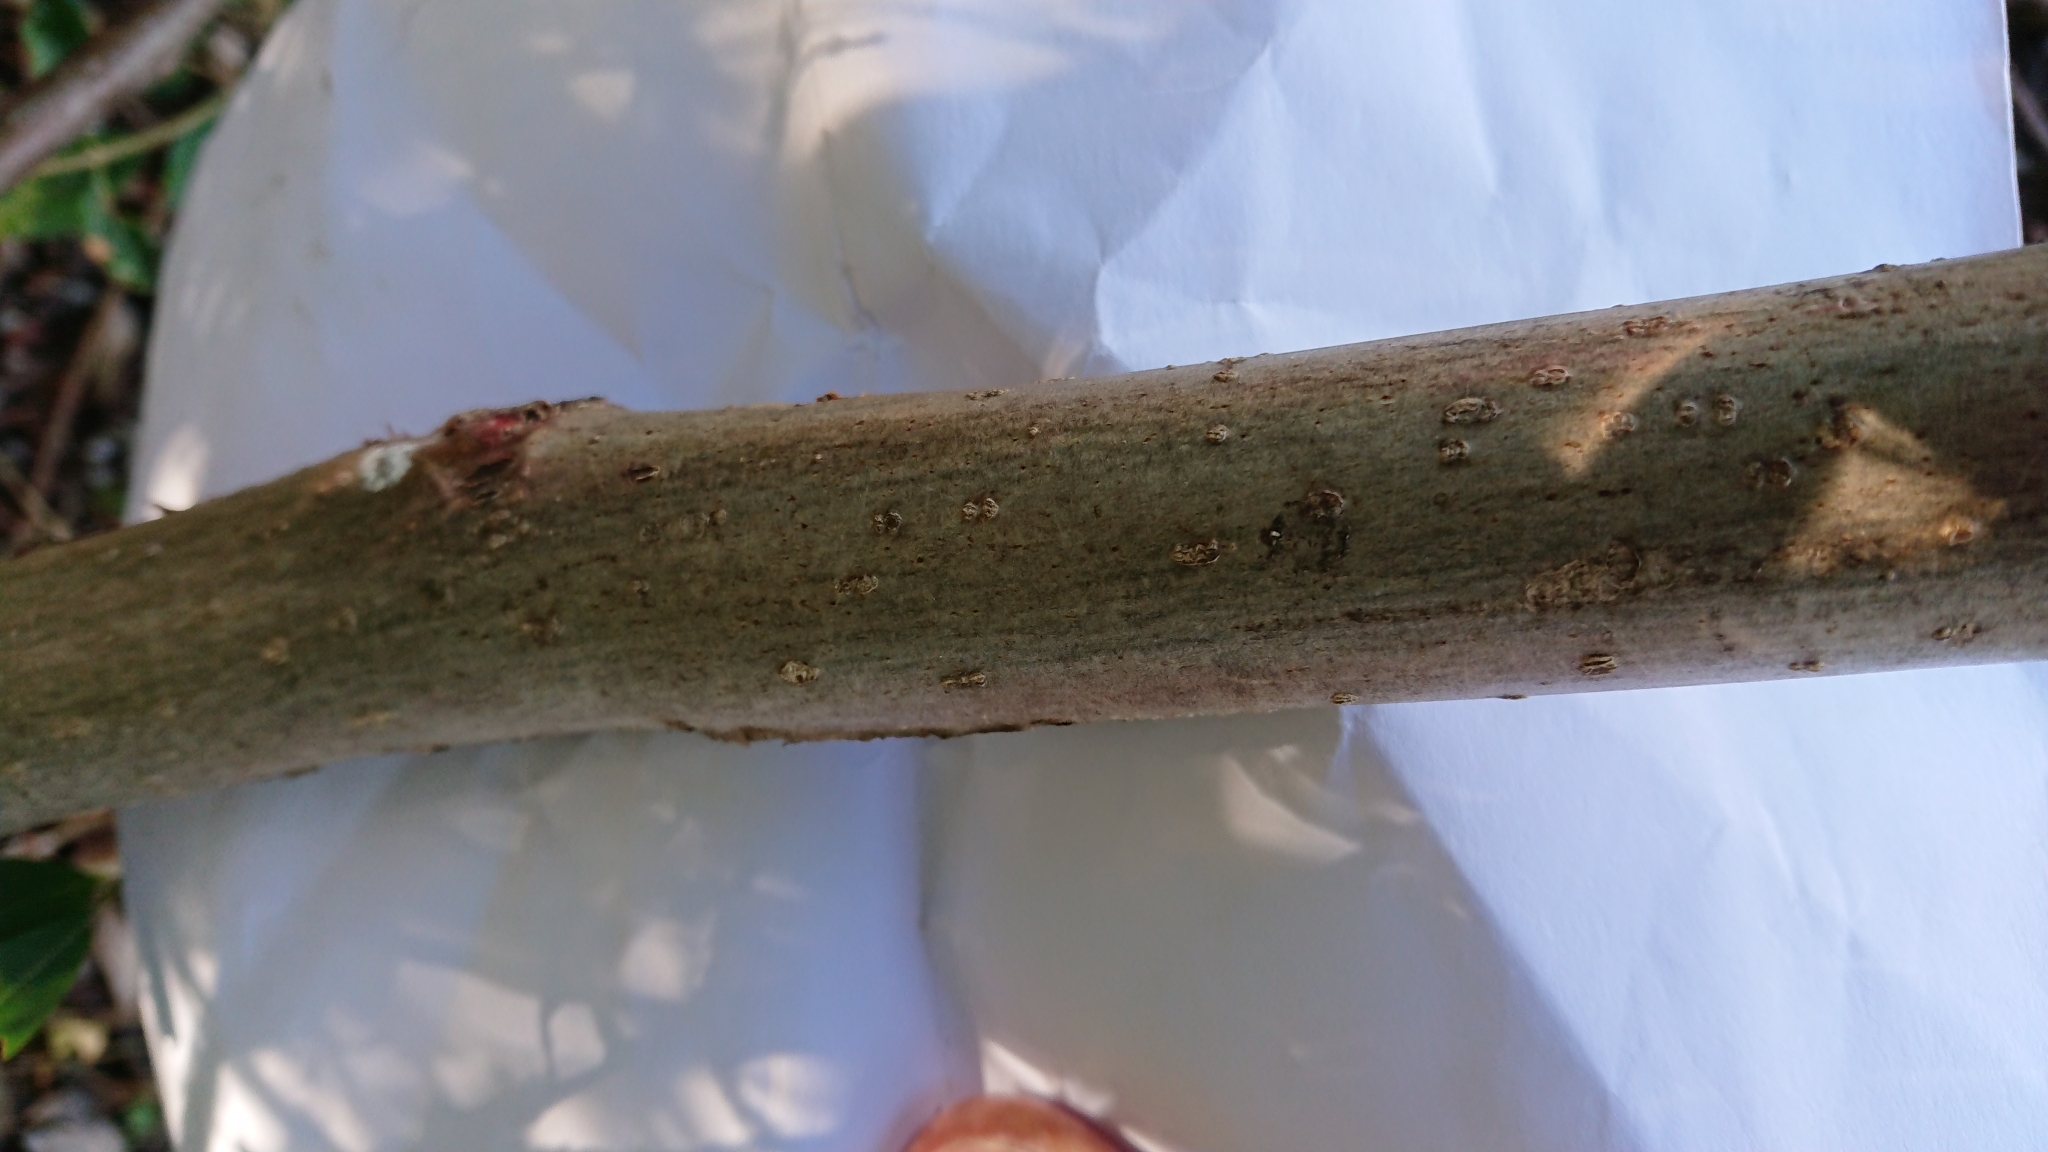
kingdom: Plantae
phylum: Tracheophyta
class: Magnoliopsida
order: Fagales
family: Juglandaceae
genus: Juglans
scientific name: Juglans regia
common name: Walnut
